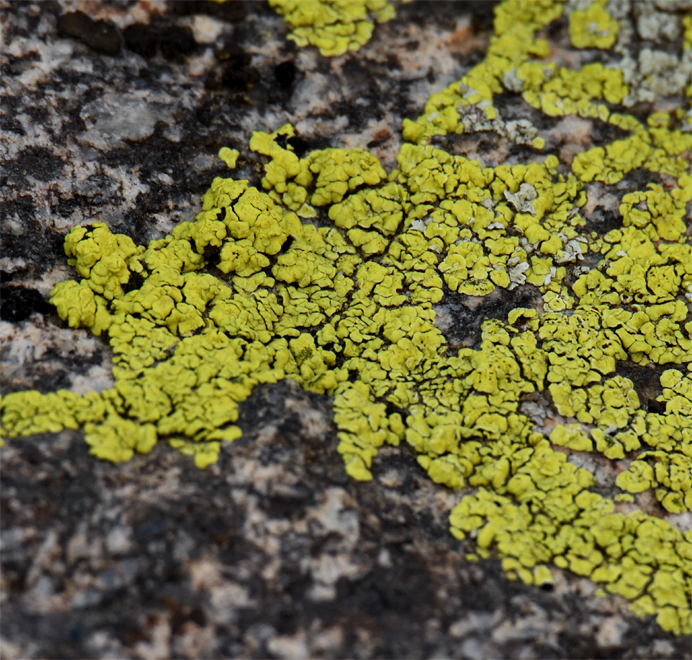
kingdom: Fungi
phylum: Ascomycota
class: Lecanoromycetes
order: Acarosporales
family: Acarosporaceae
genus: Acarospora
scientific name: Acarospora socialis
